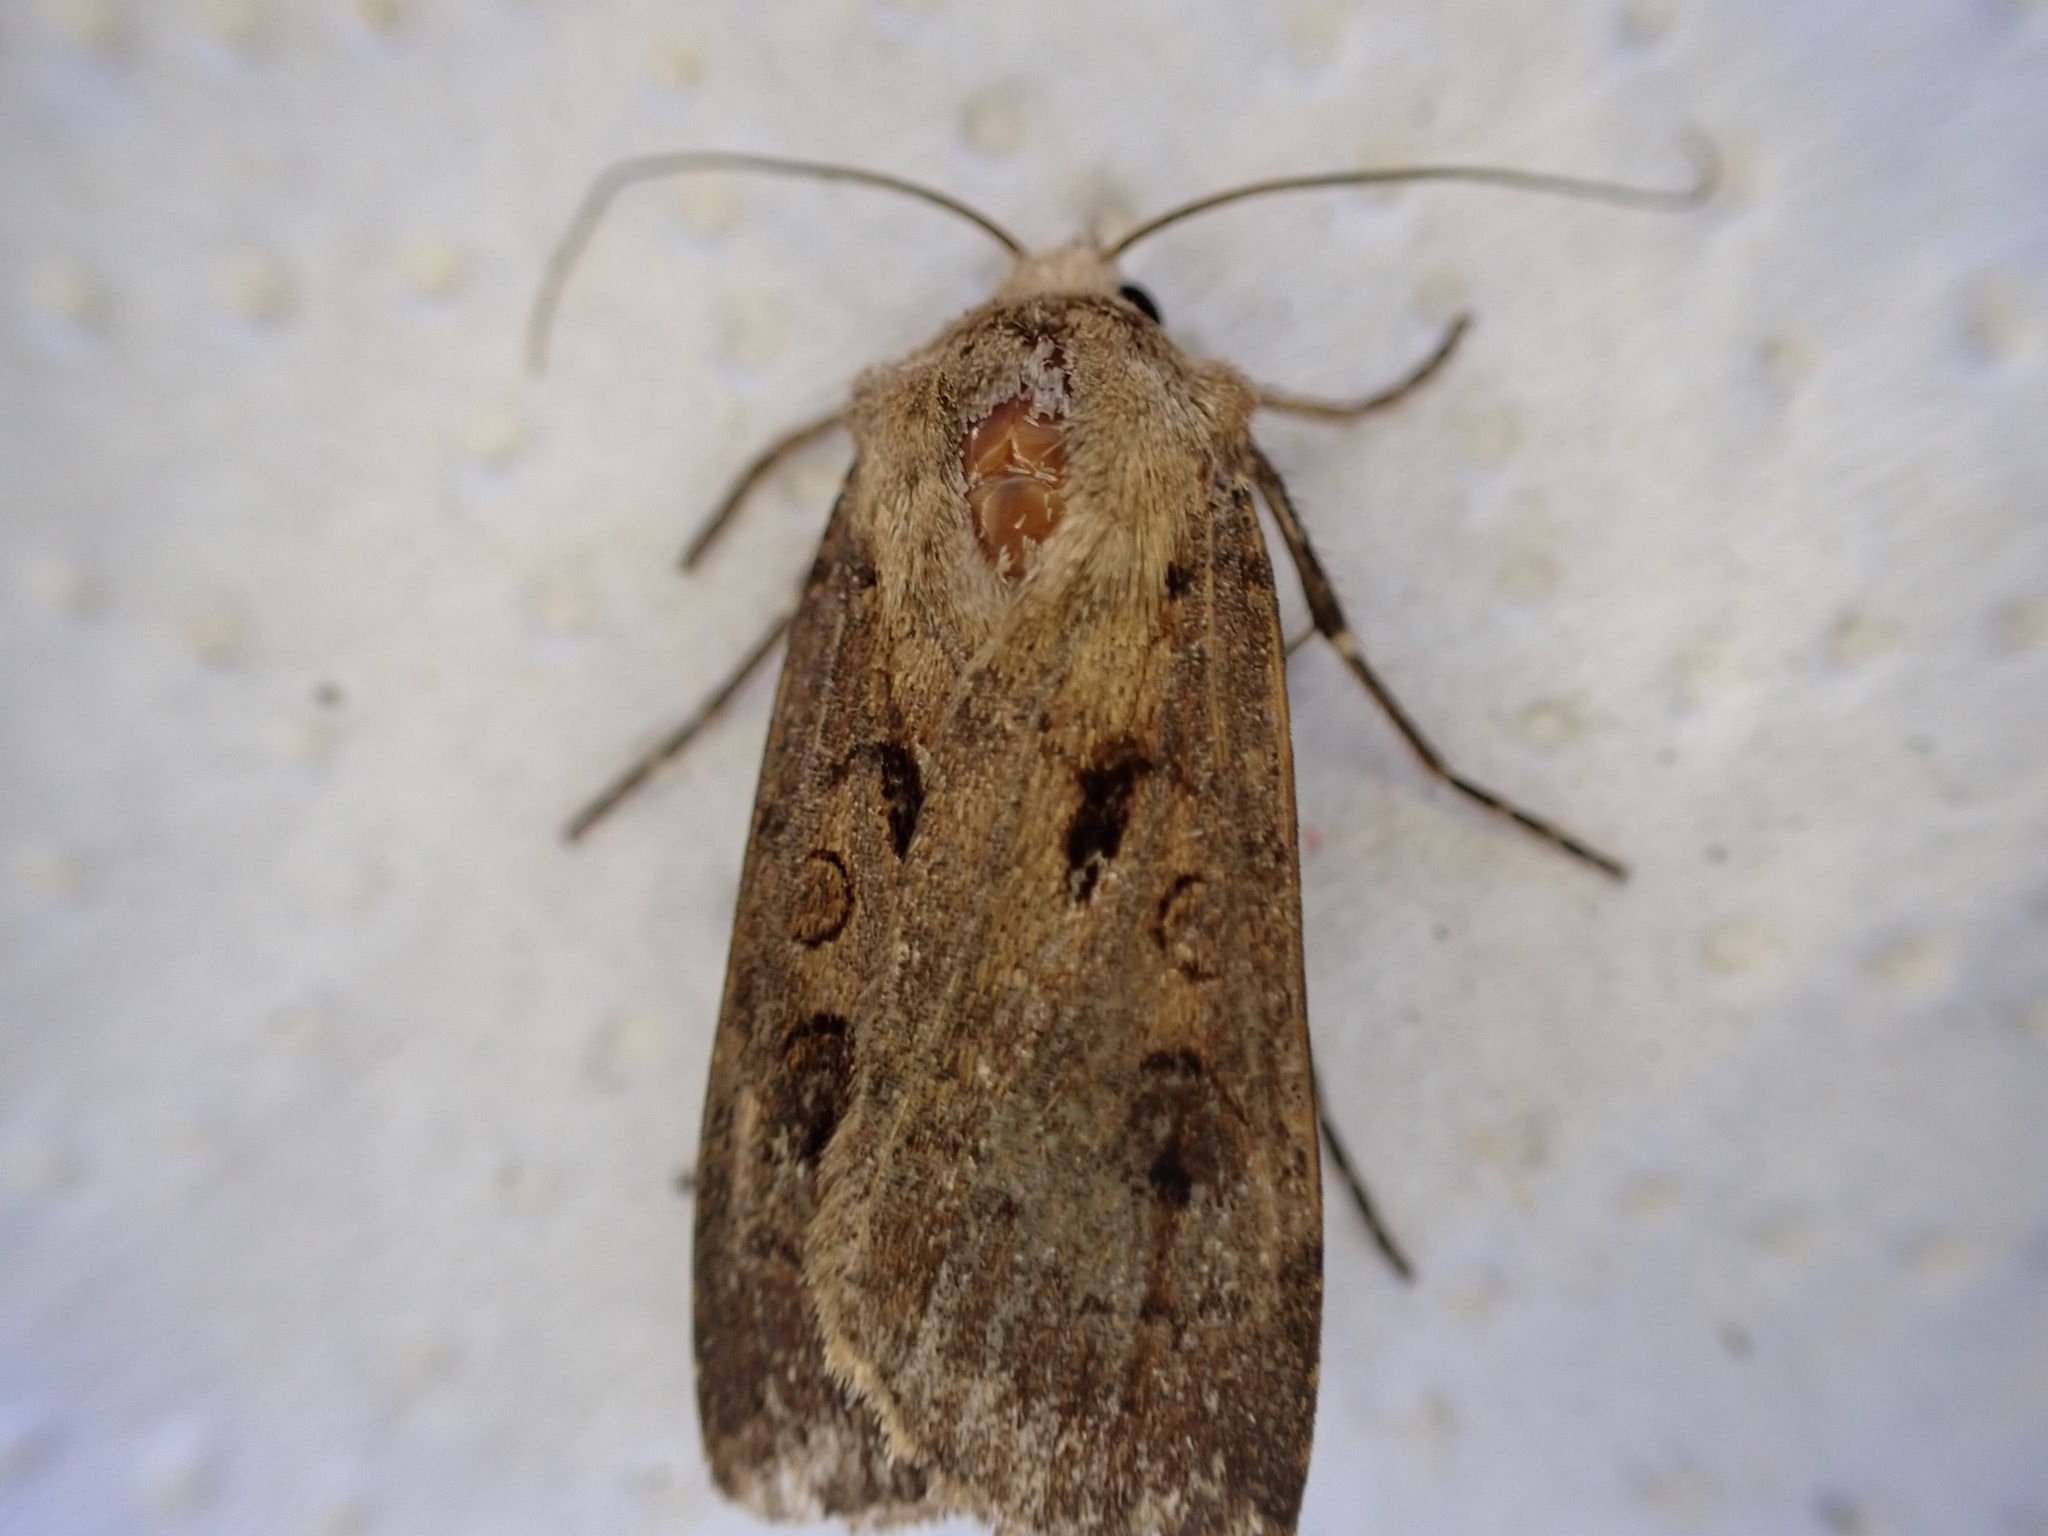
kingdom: Animalia
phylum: Arthropoda
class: Insecta
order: Lepidoptera
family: Noctuidae
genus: Agrotis
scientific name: Agrotis exclamationis
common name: Heart and dart
